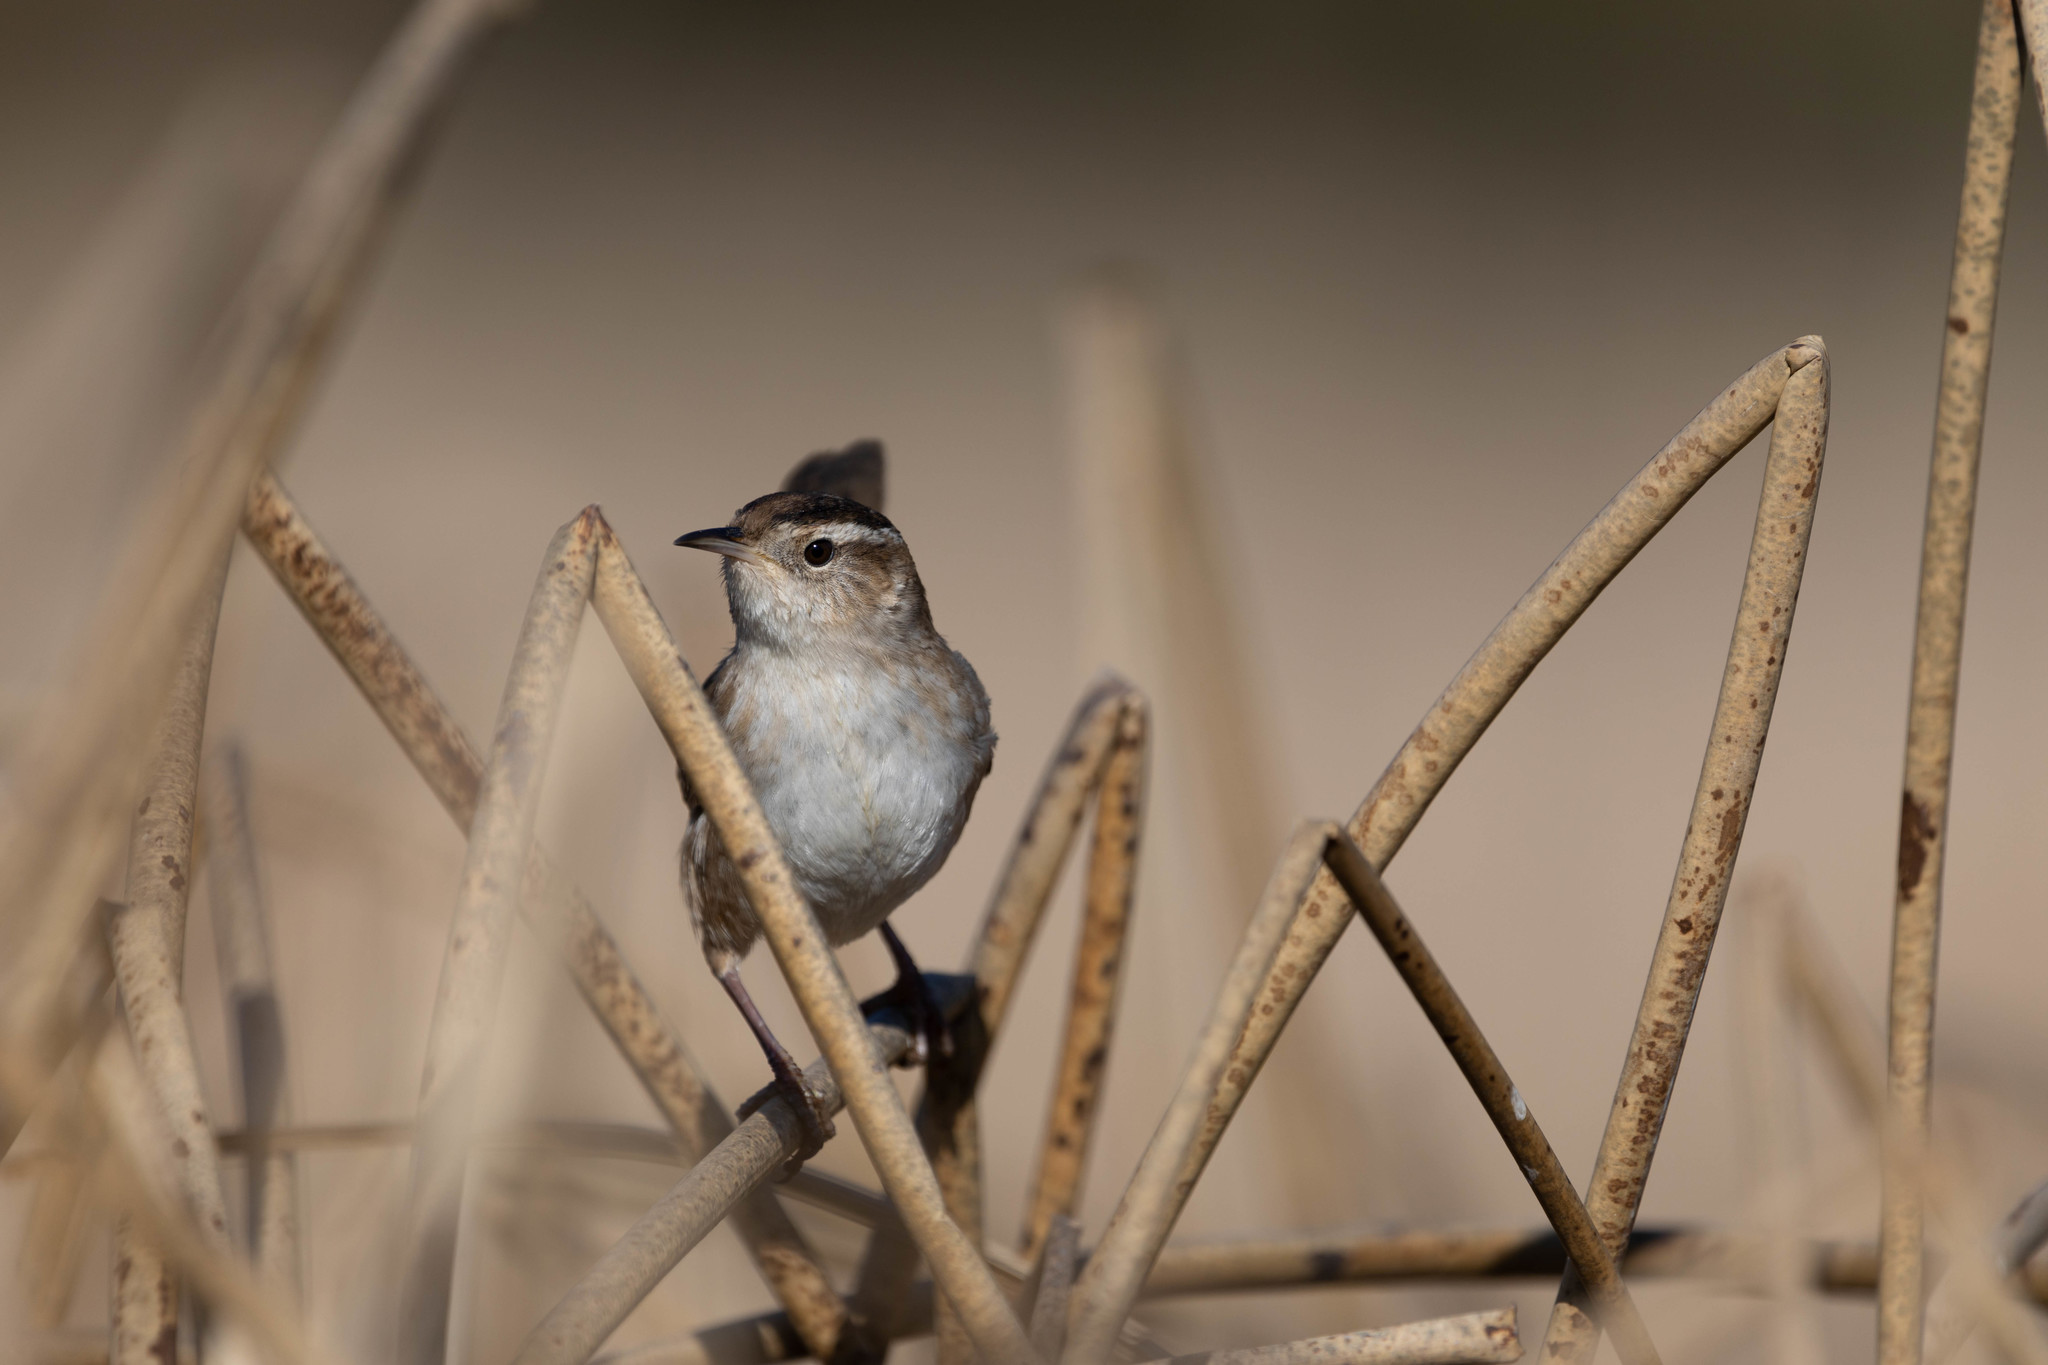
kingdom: Animalia
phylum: Chordata
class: Aves
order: Passeriformes
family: Troglodytidae
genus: Cistothorus
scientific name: Cistothorus palustris
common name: Marsh wren
